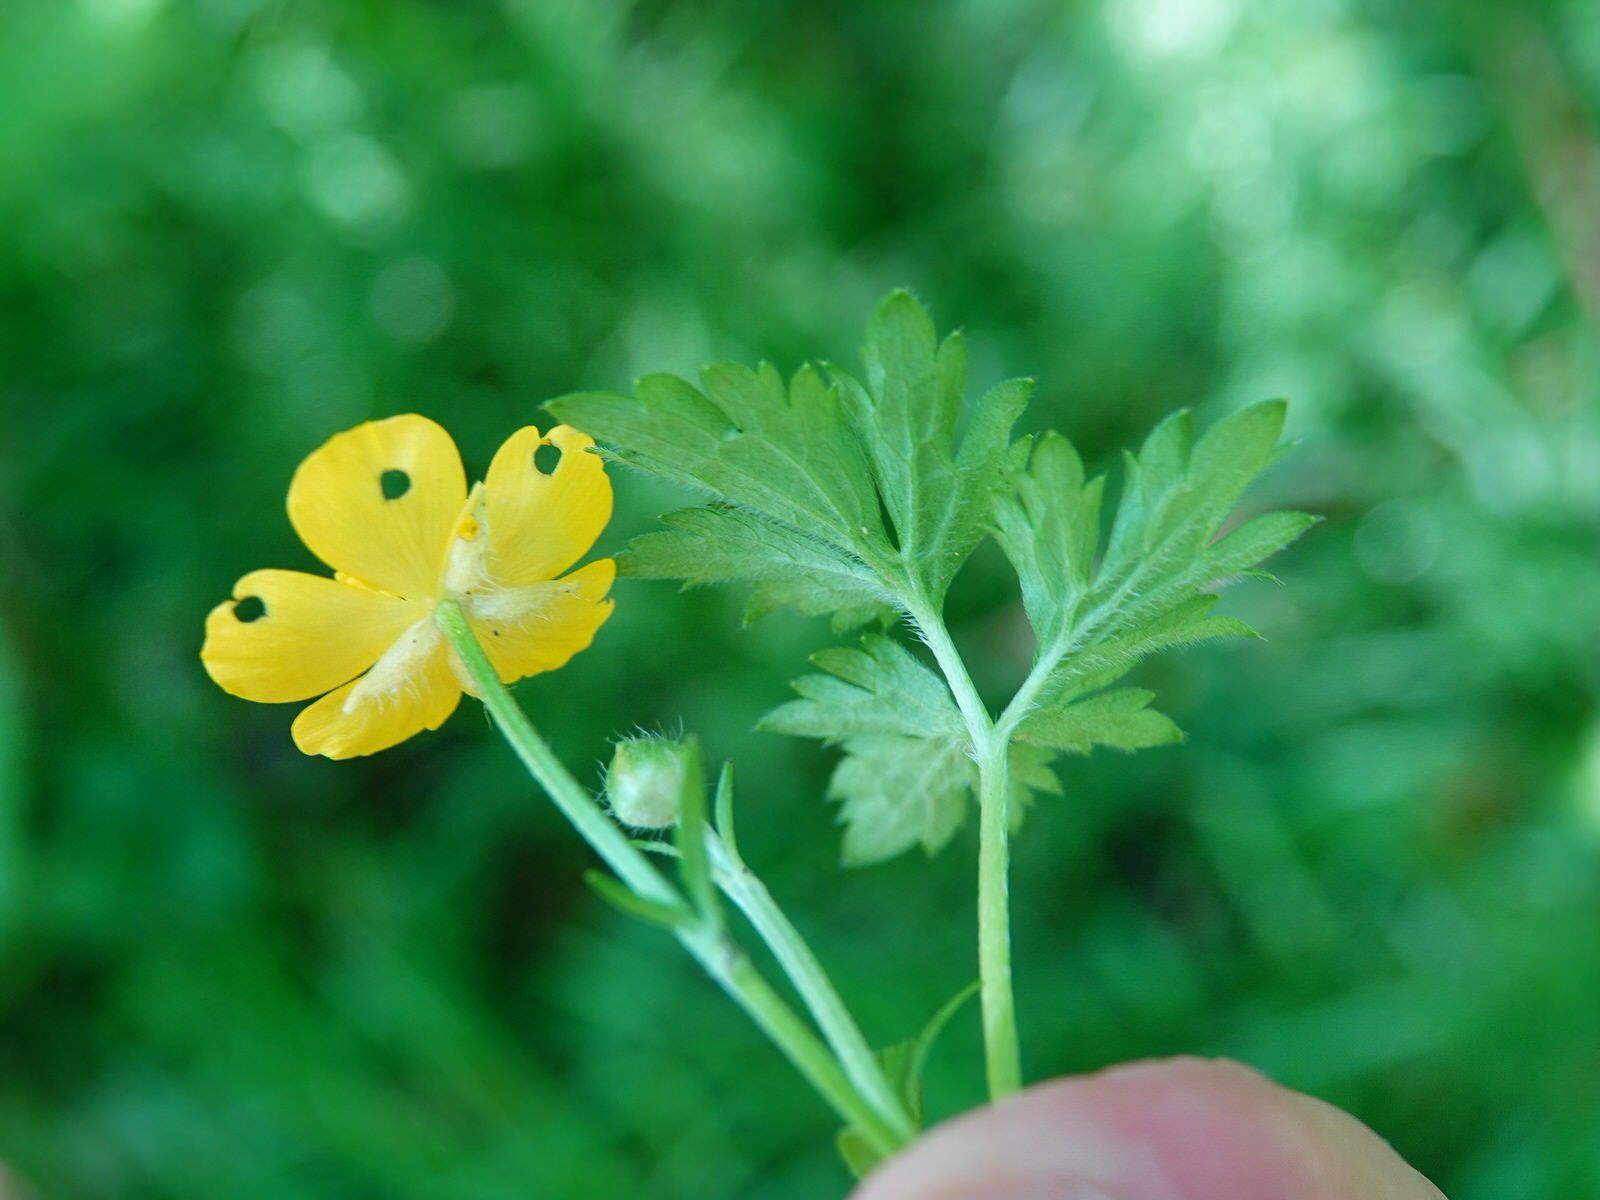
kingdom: Plantae
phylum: Tracheophyta
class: Magnoliopsida
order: Ranunculales
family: Ranunculaceae
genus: Ranunculus
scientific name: Ranunculus repens
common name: Creeping buttercup
